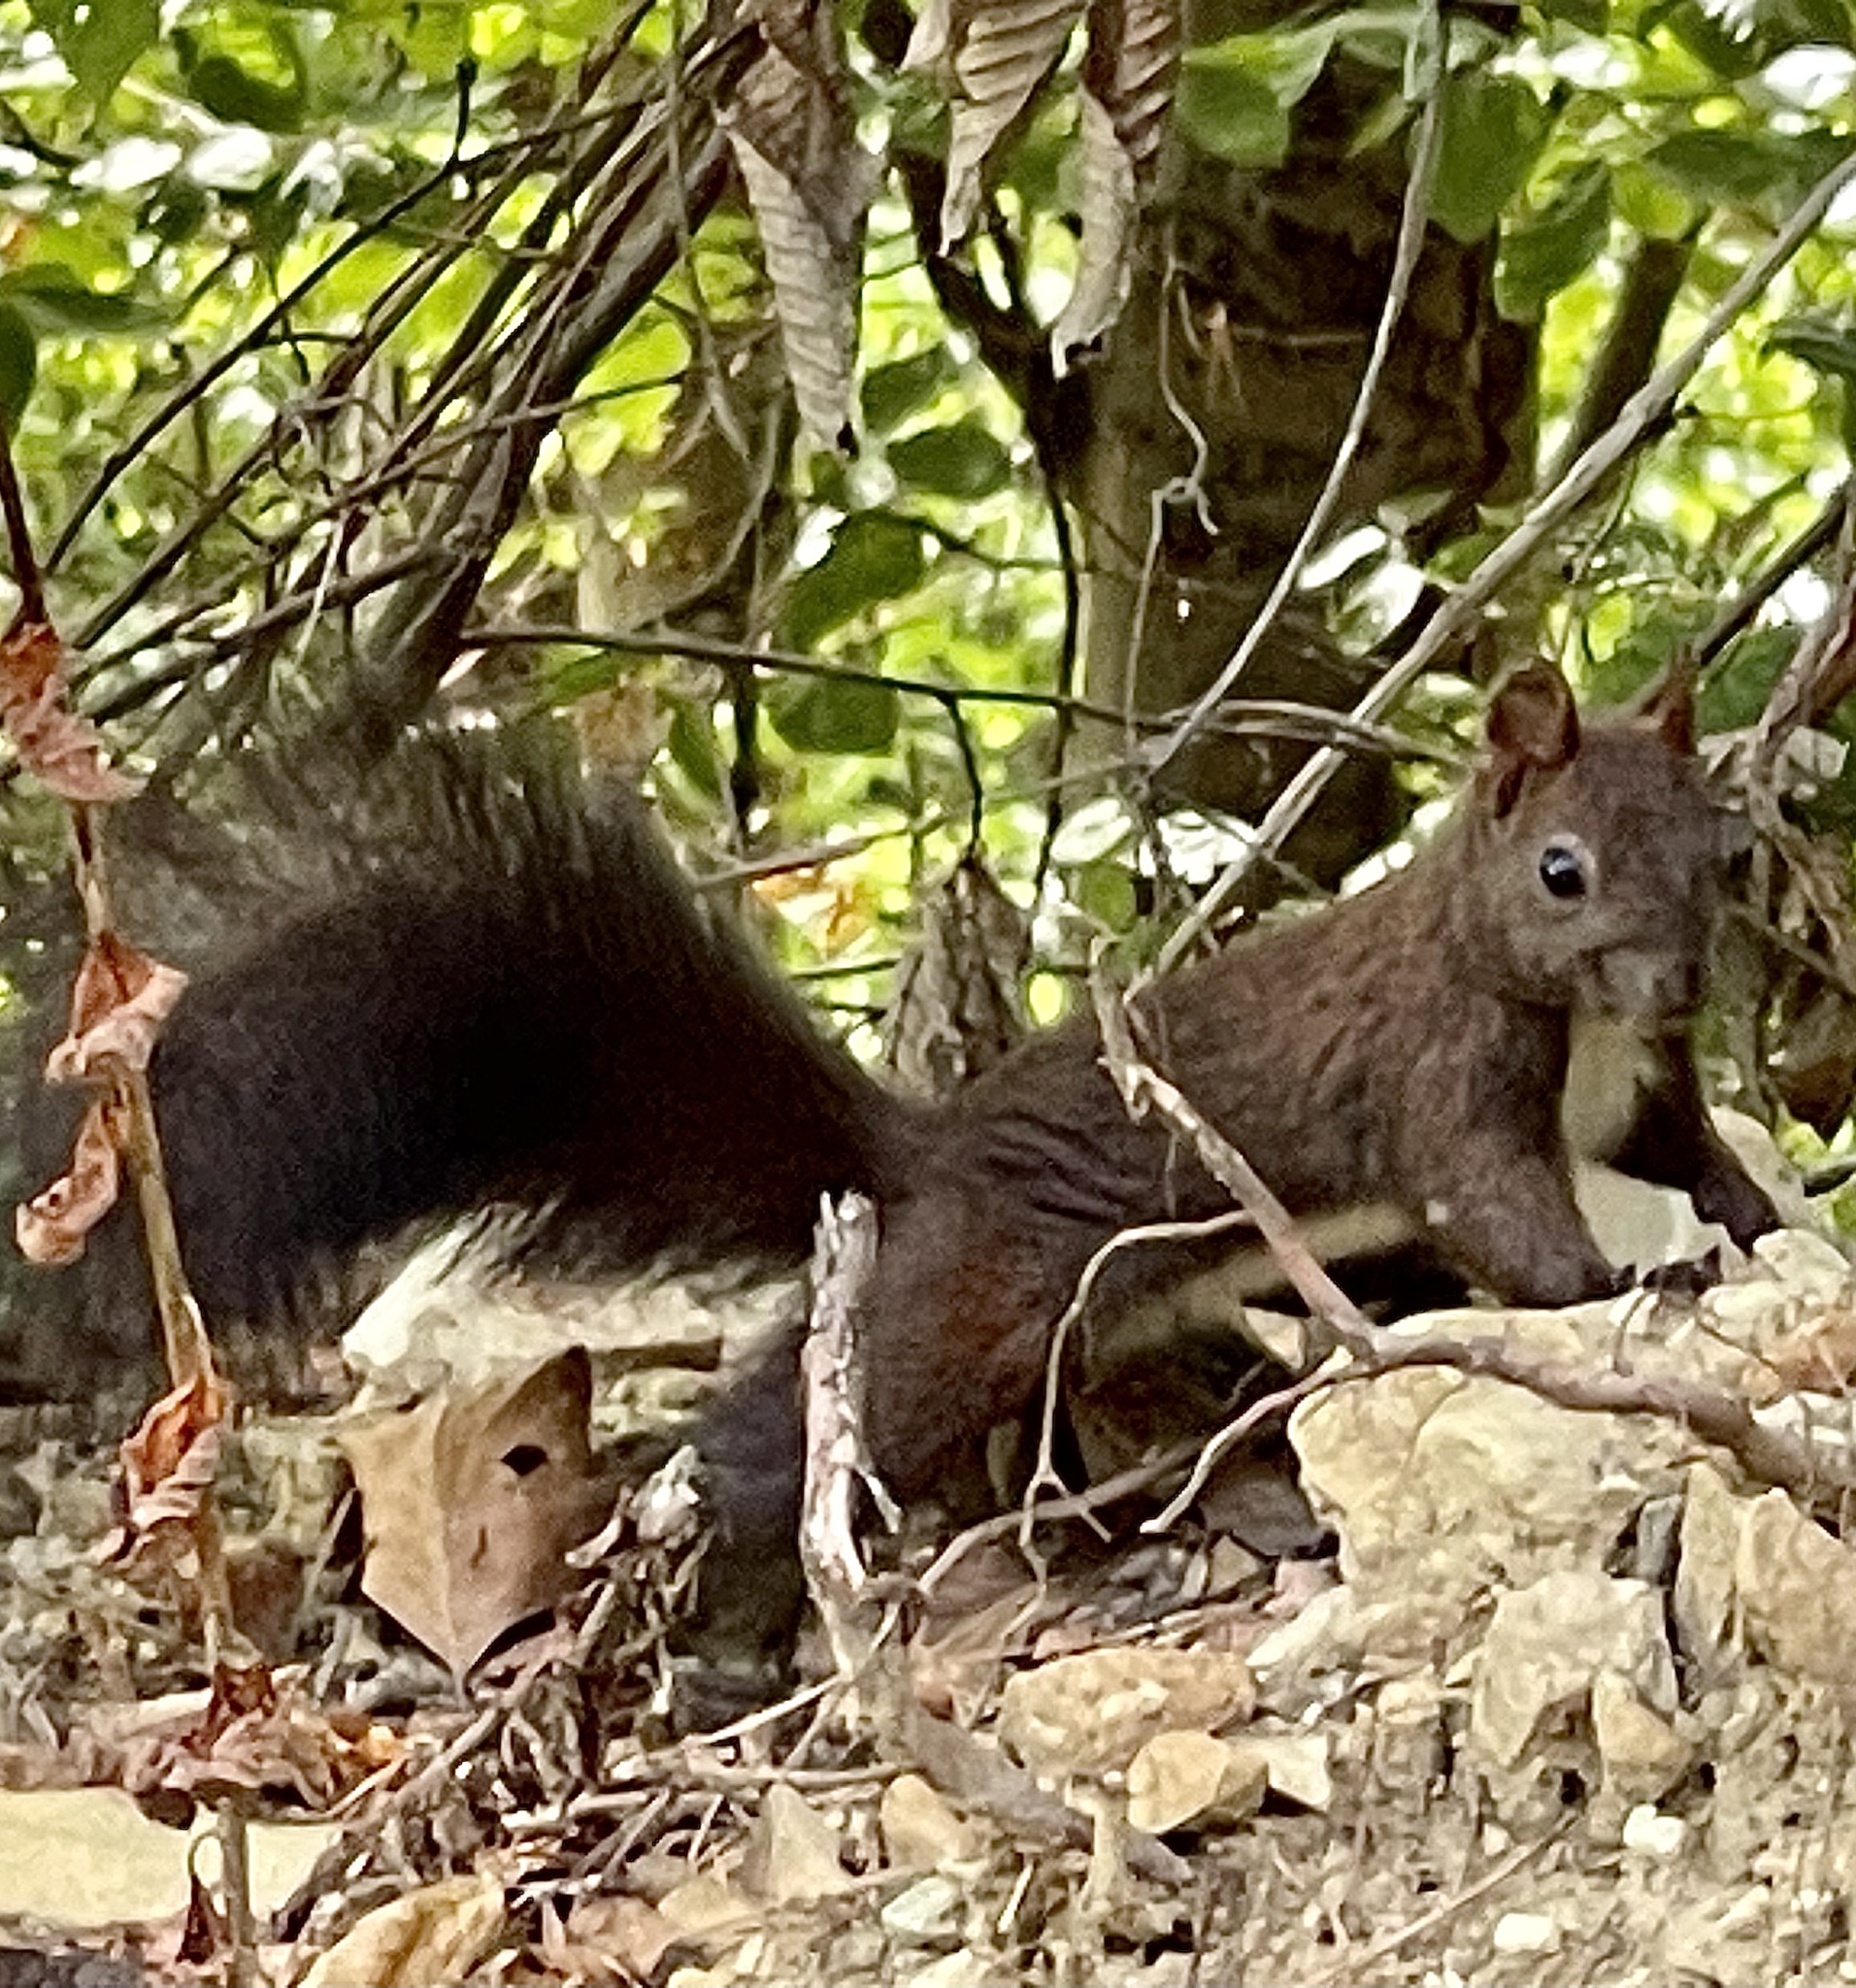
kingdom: Animalia
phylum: Chordata
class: Mammalia
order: Rodentia
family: Sciuridae
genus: Sciurus
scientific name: Sciurus vulgaris
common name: Eurasian red squirrel
